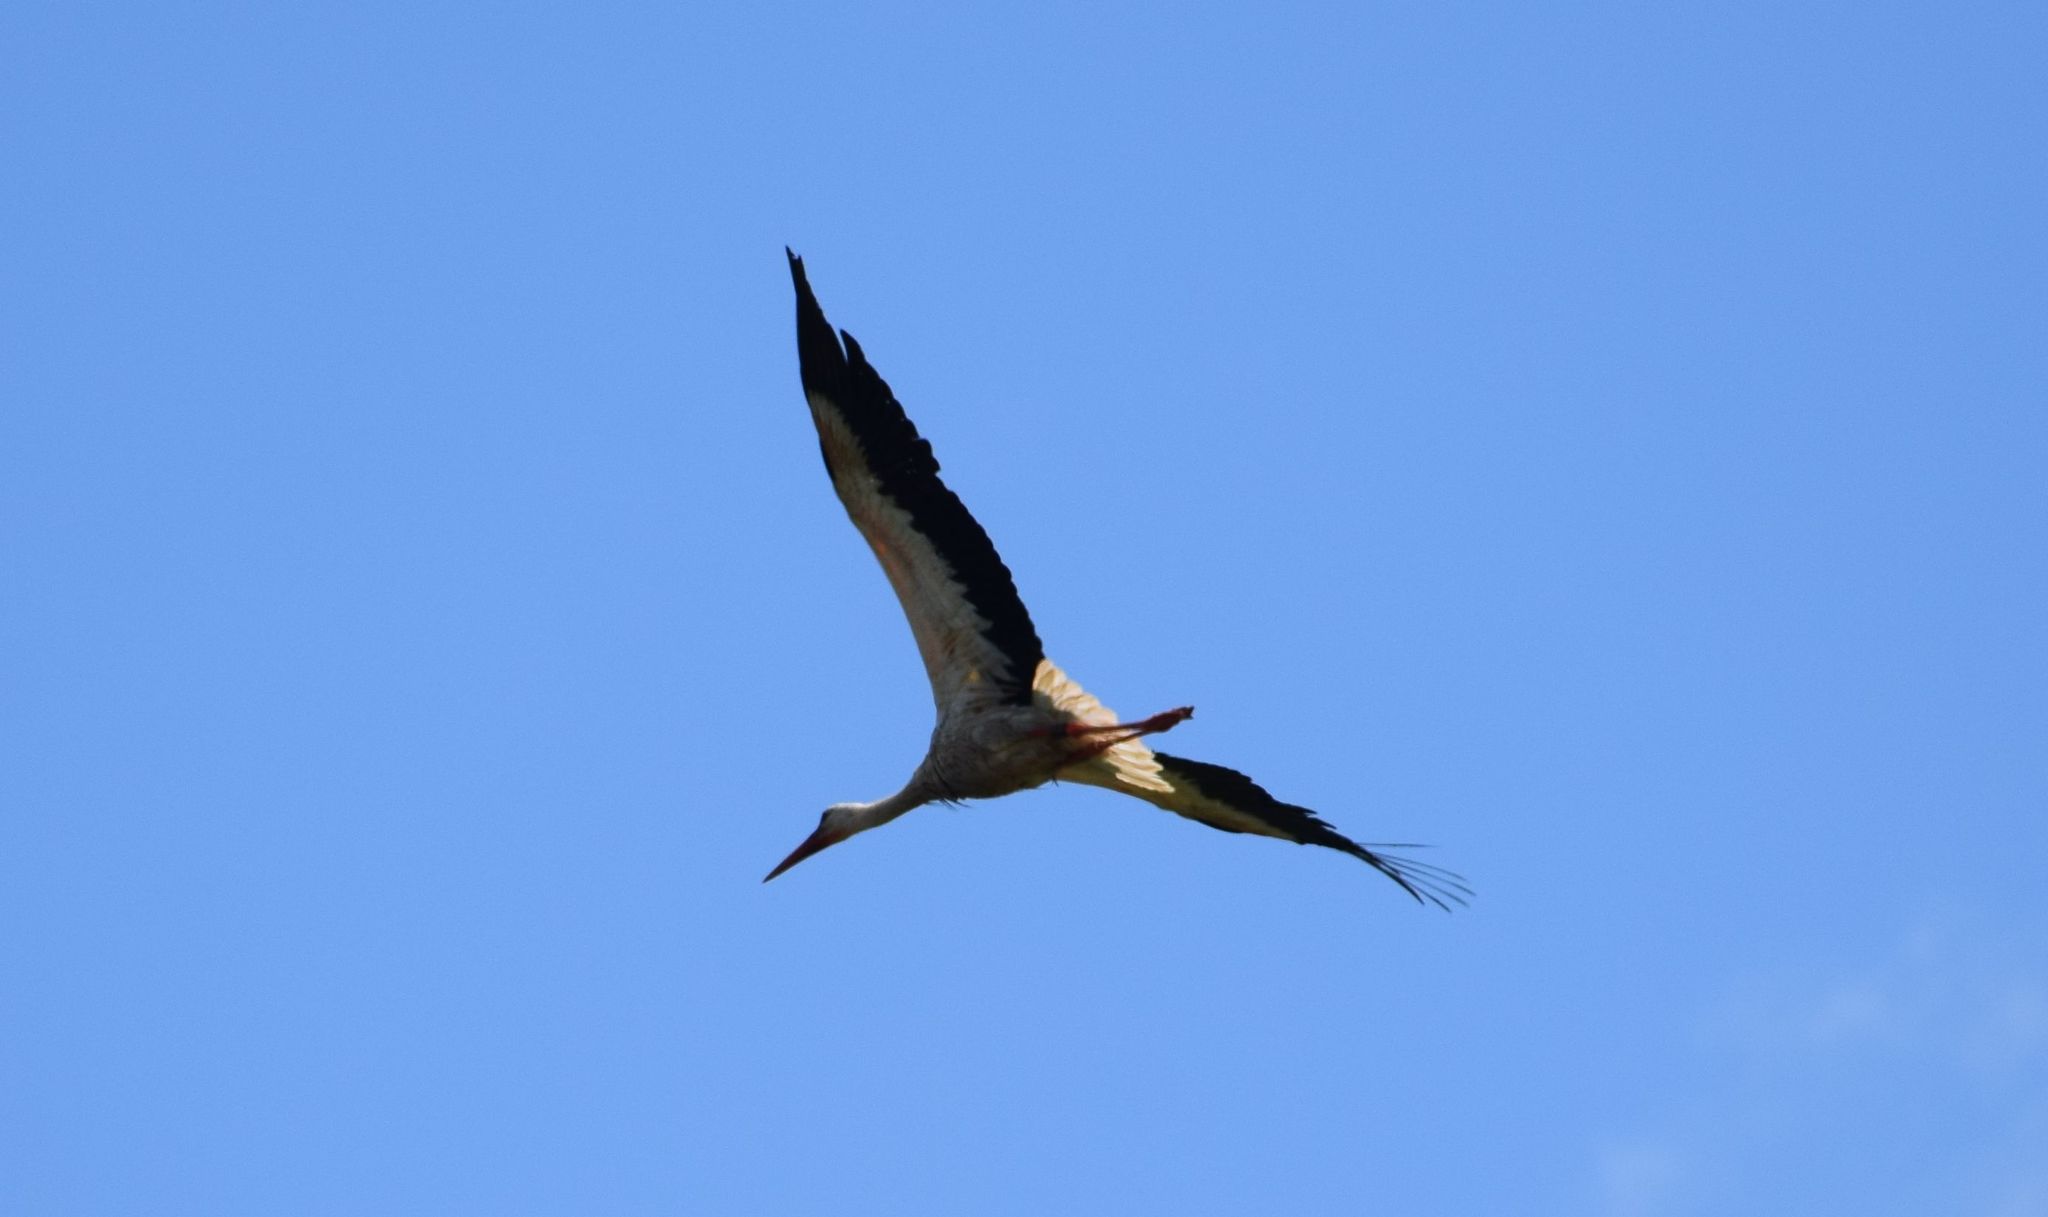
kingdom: Animalia
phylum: Chordata
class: Aves
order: Ciconiiformes
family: Ciconiidae
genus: Ciconia
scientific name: Ciconia ciconia
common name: White stork
